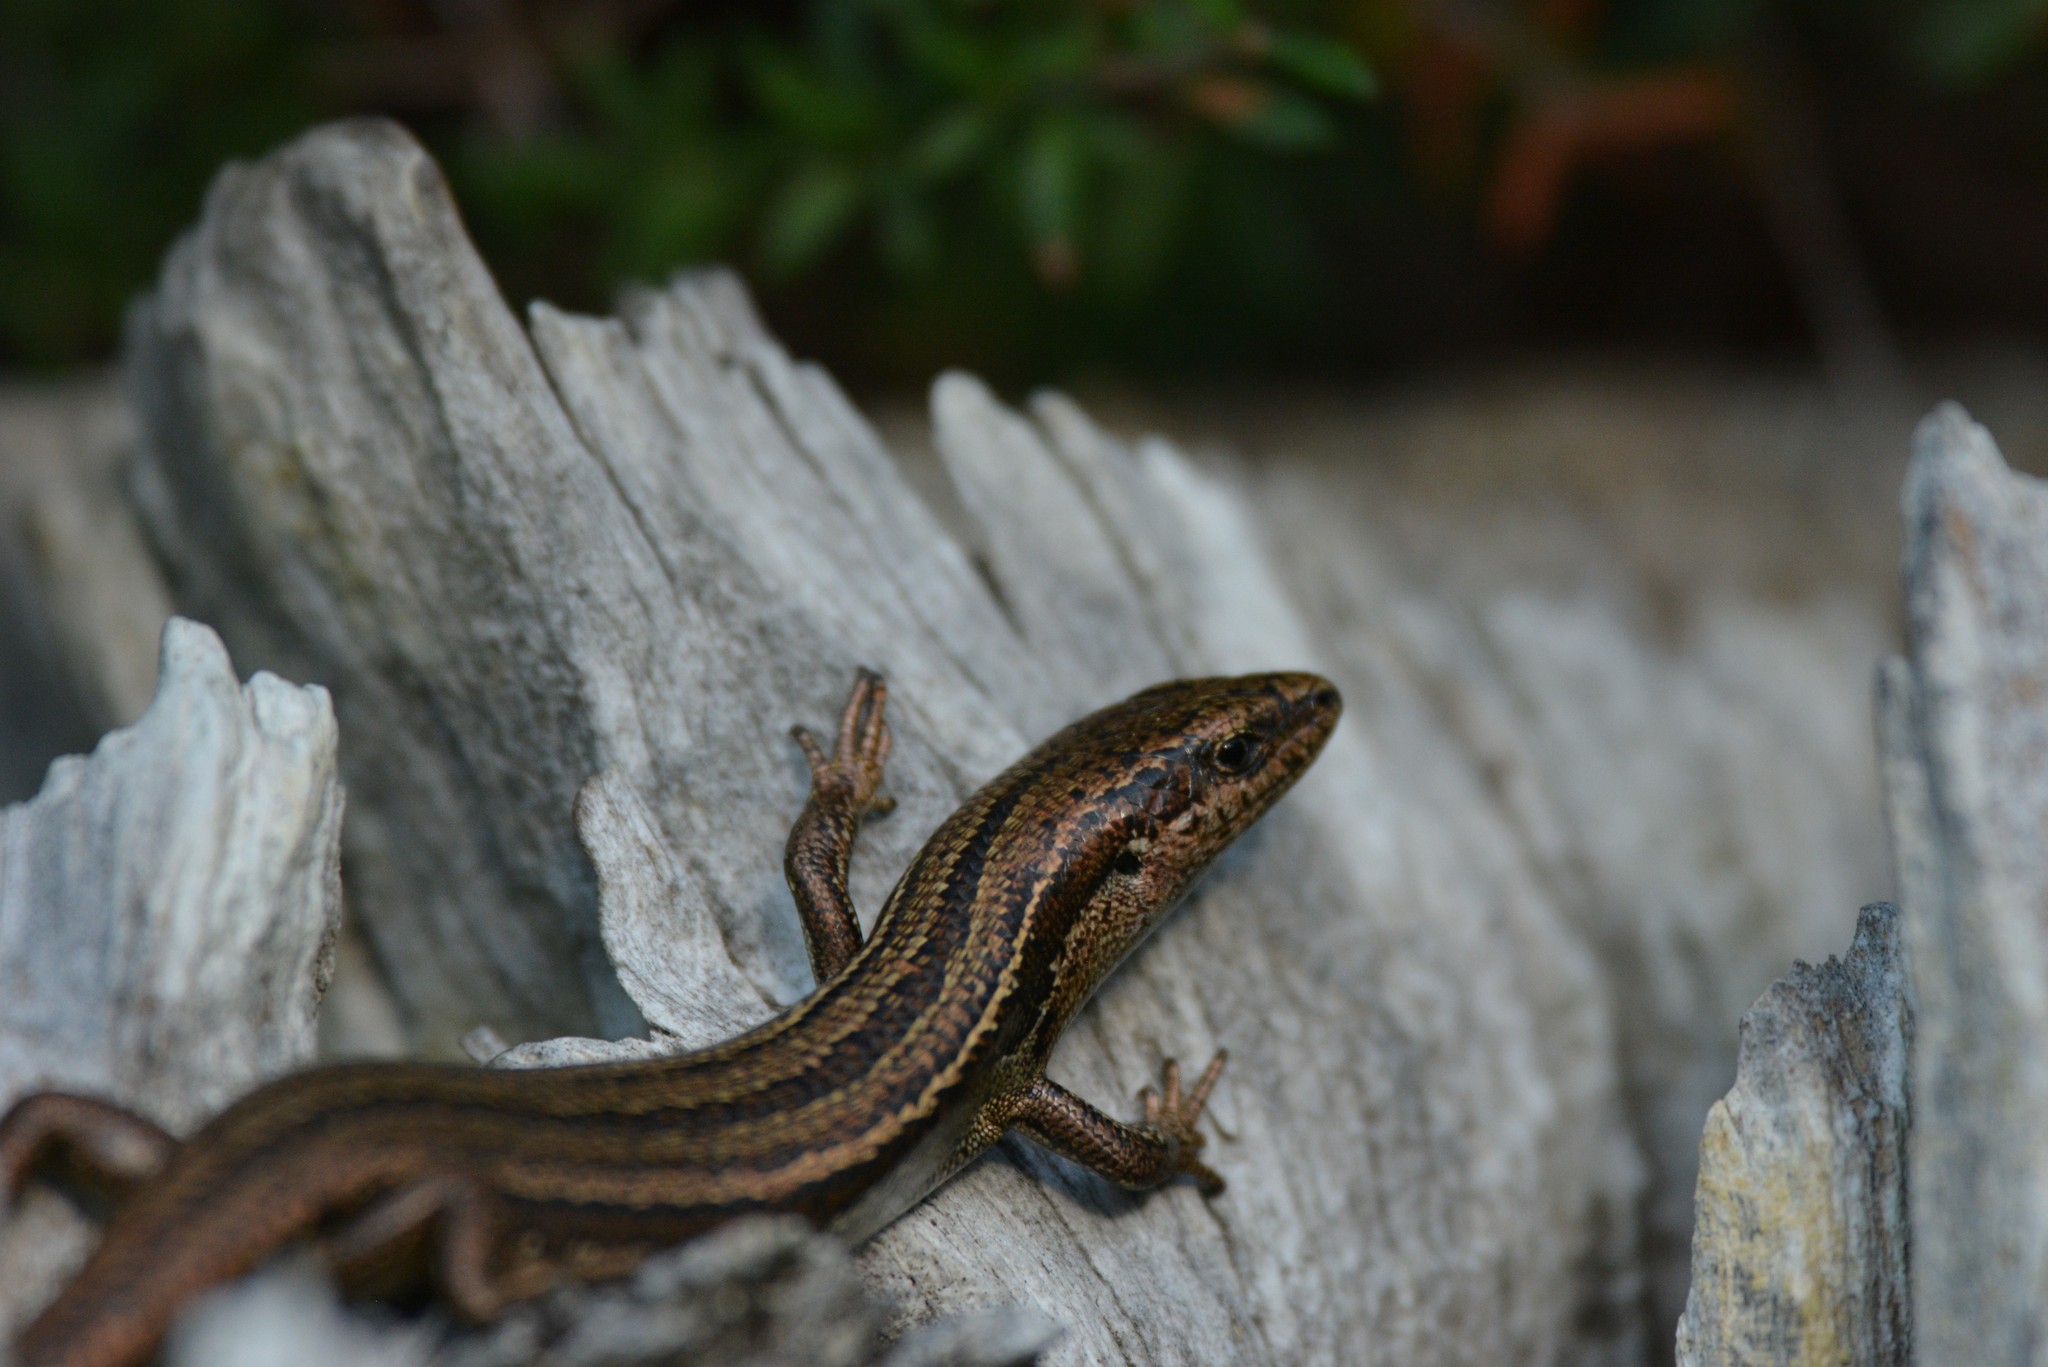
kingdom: Animalia
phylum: Chordata
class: Squamata
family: Scincidae
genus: Oligosoma
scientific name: Oligosoma polychroma
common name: Common new zealand skink
